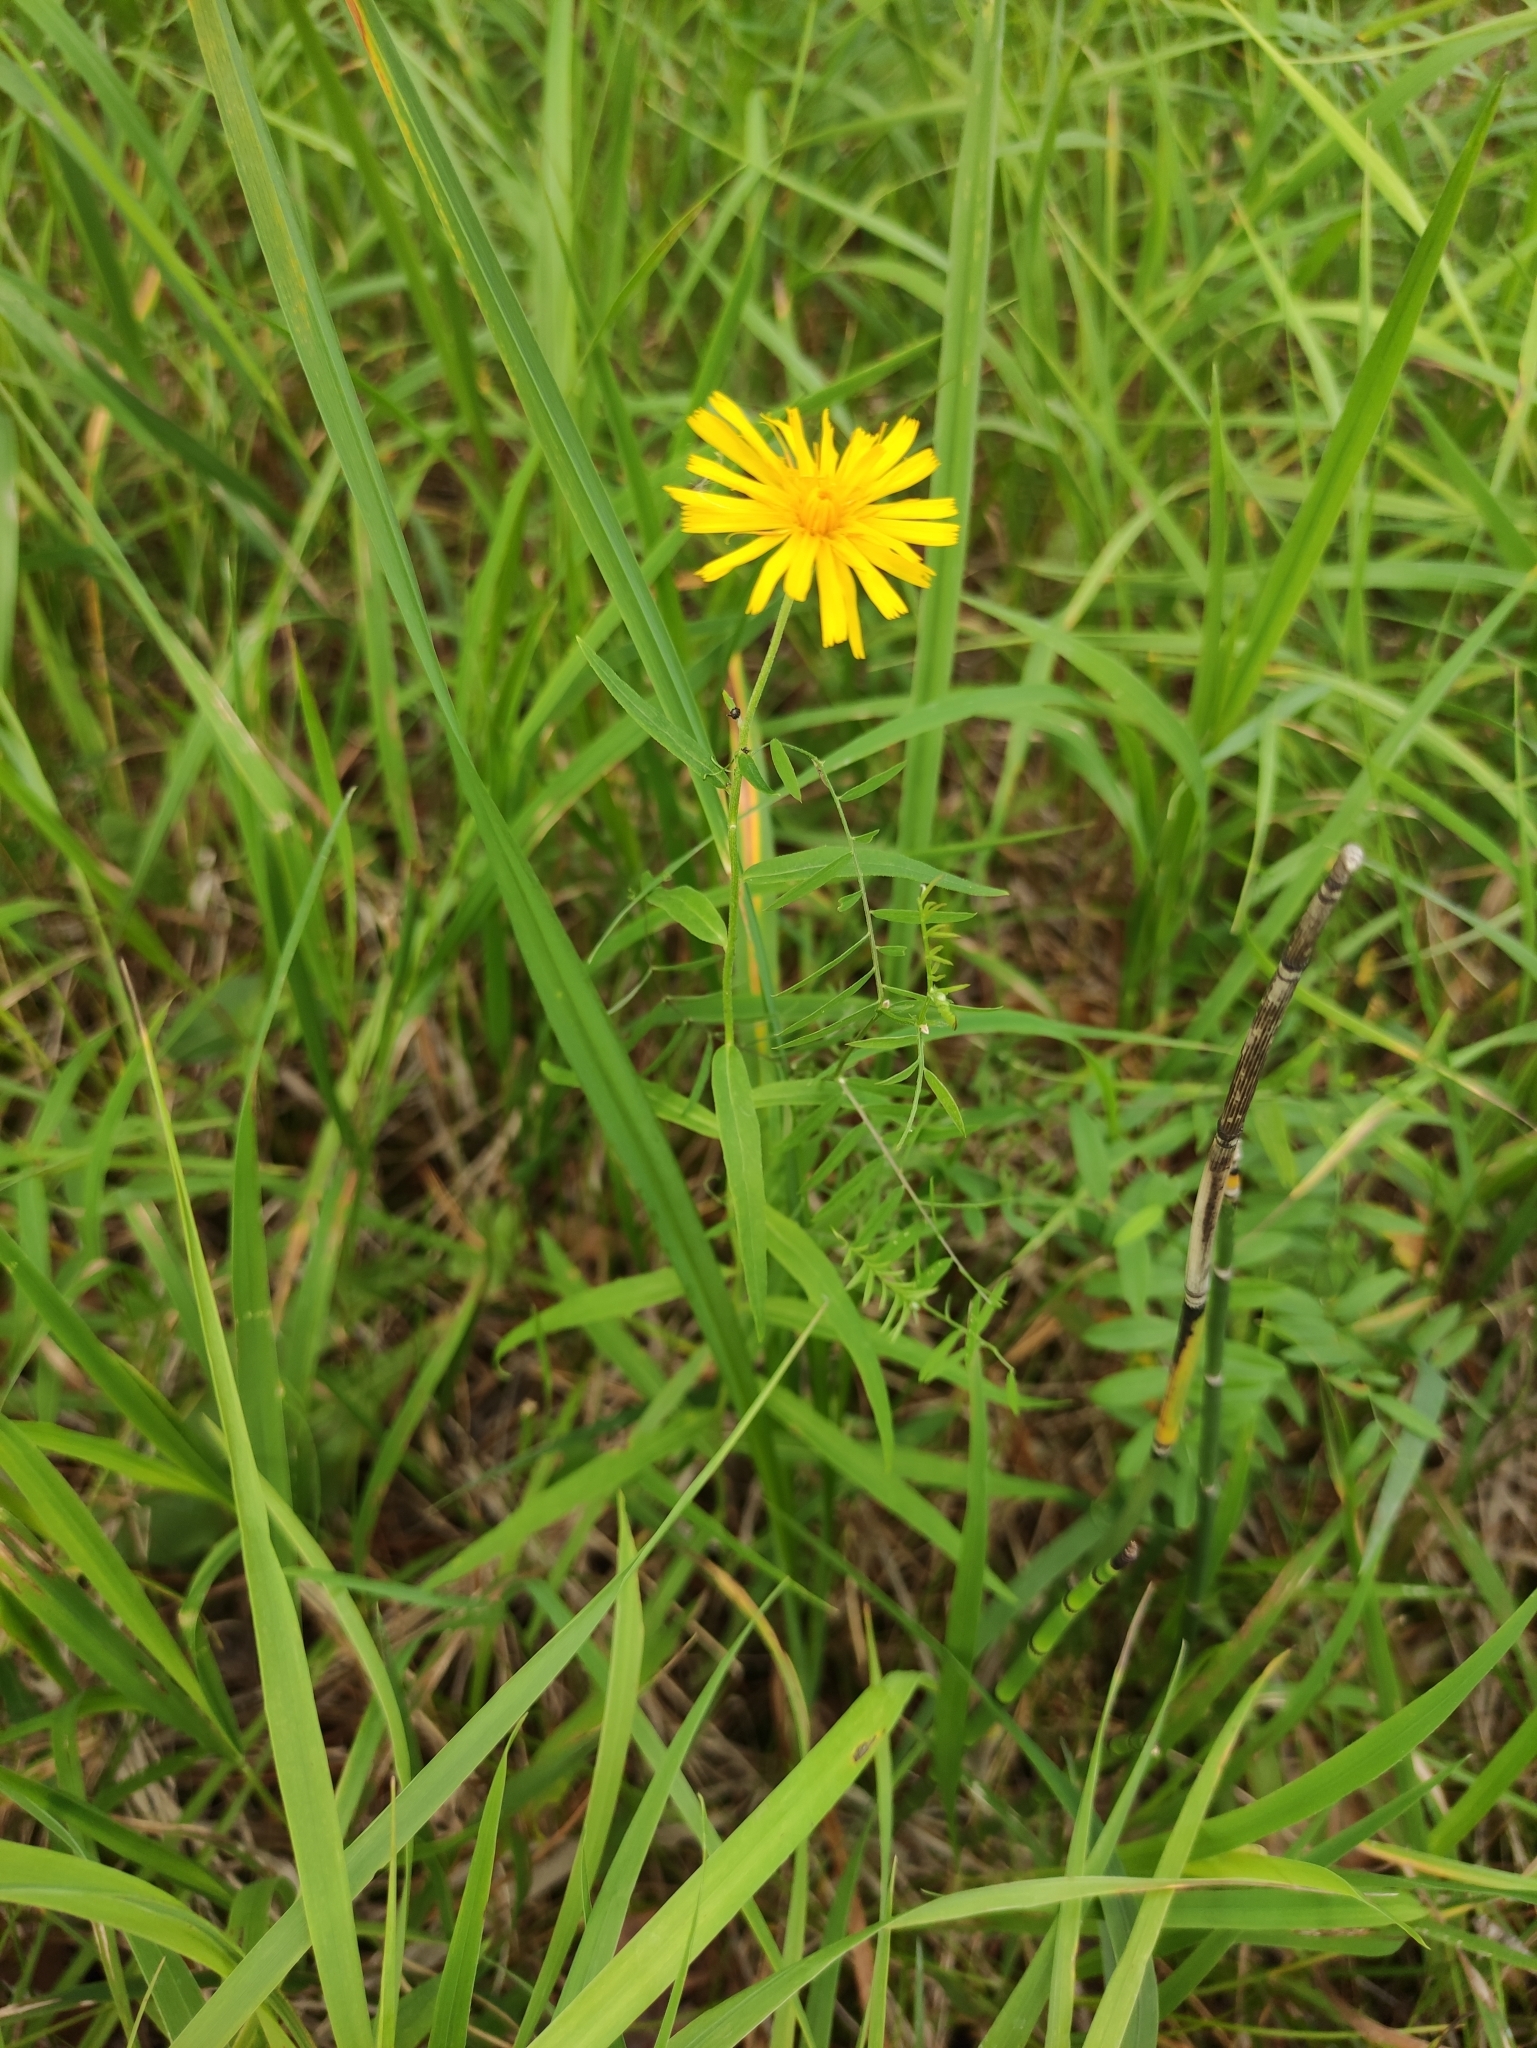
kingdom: Plantae
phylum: Tracheophyta
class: Magnoliopsida
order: Asterales
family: Asteraceae
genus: Hieracium
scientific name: Hieracium umbellatum
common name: Northern hawkweed
